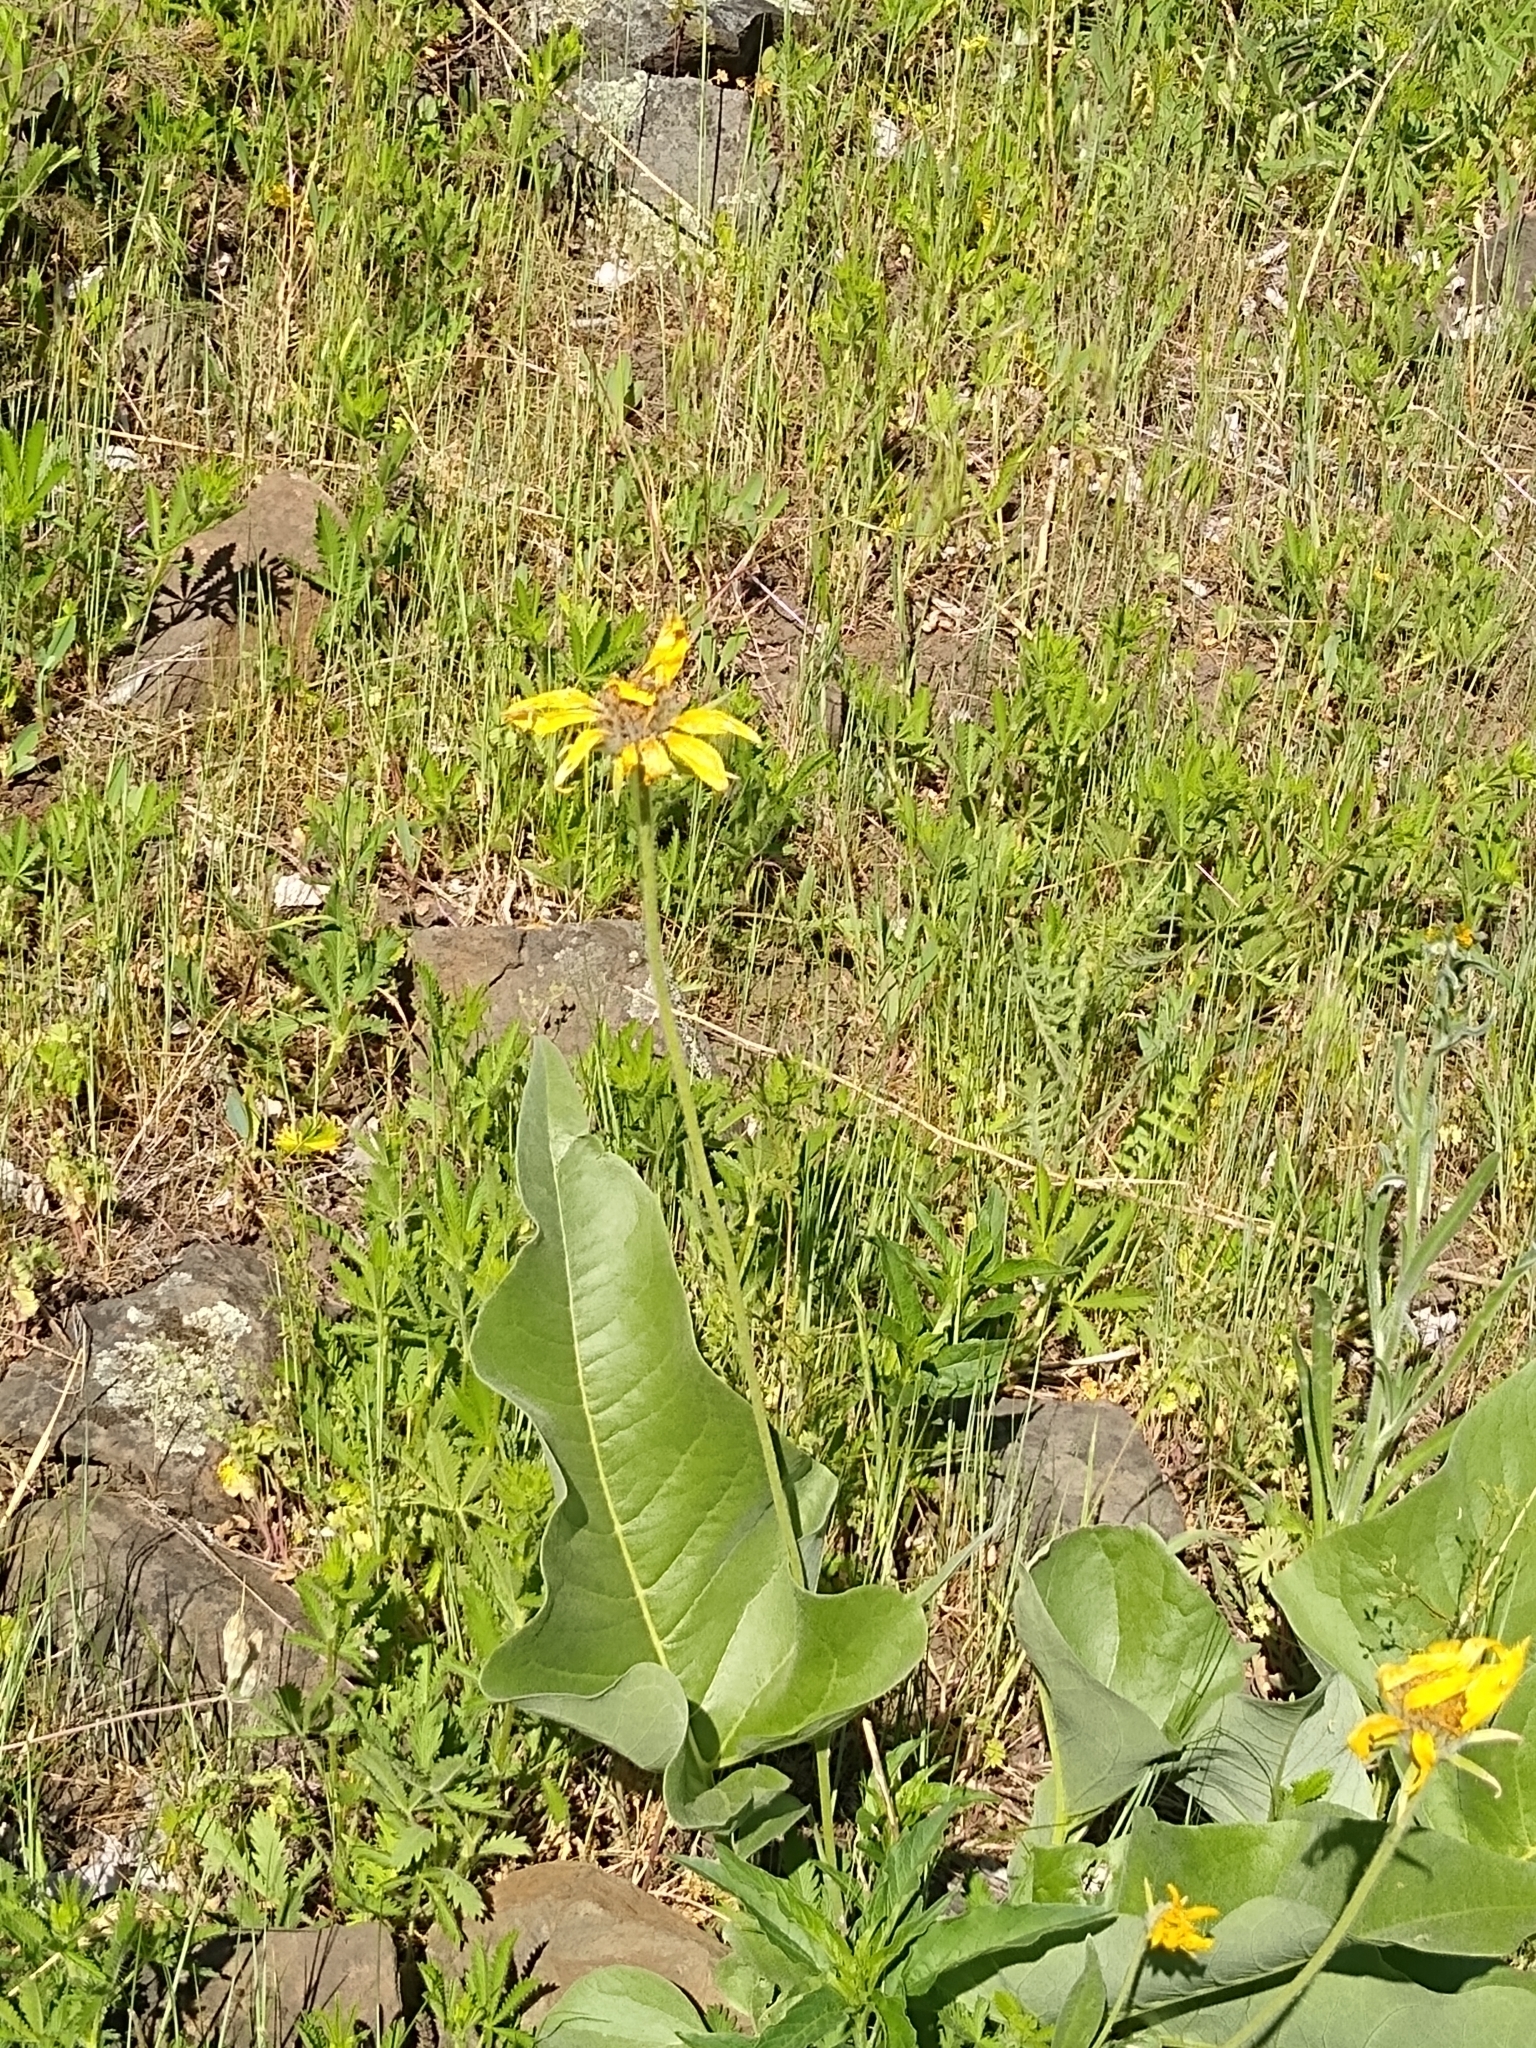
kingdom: Plantae
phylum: Tracheophyta
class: Magnoliopsida
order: Asterales
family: Asteraceae
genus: Wyethia
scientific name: Wyethia sagittata
